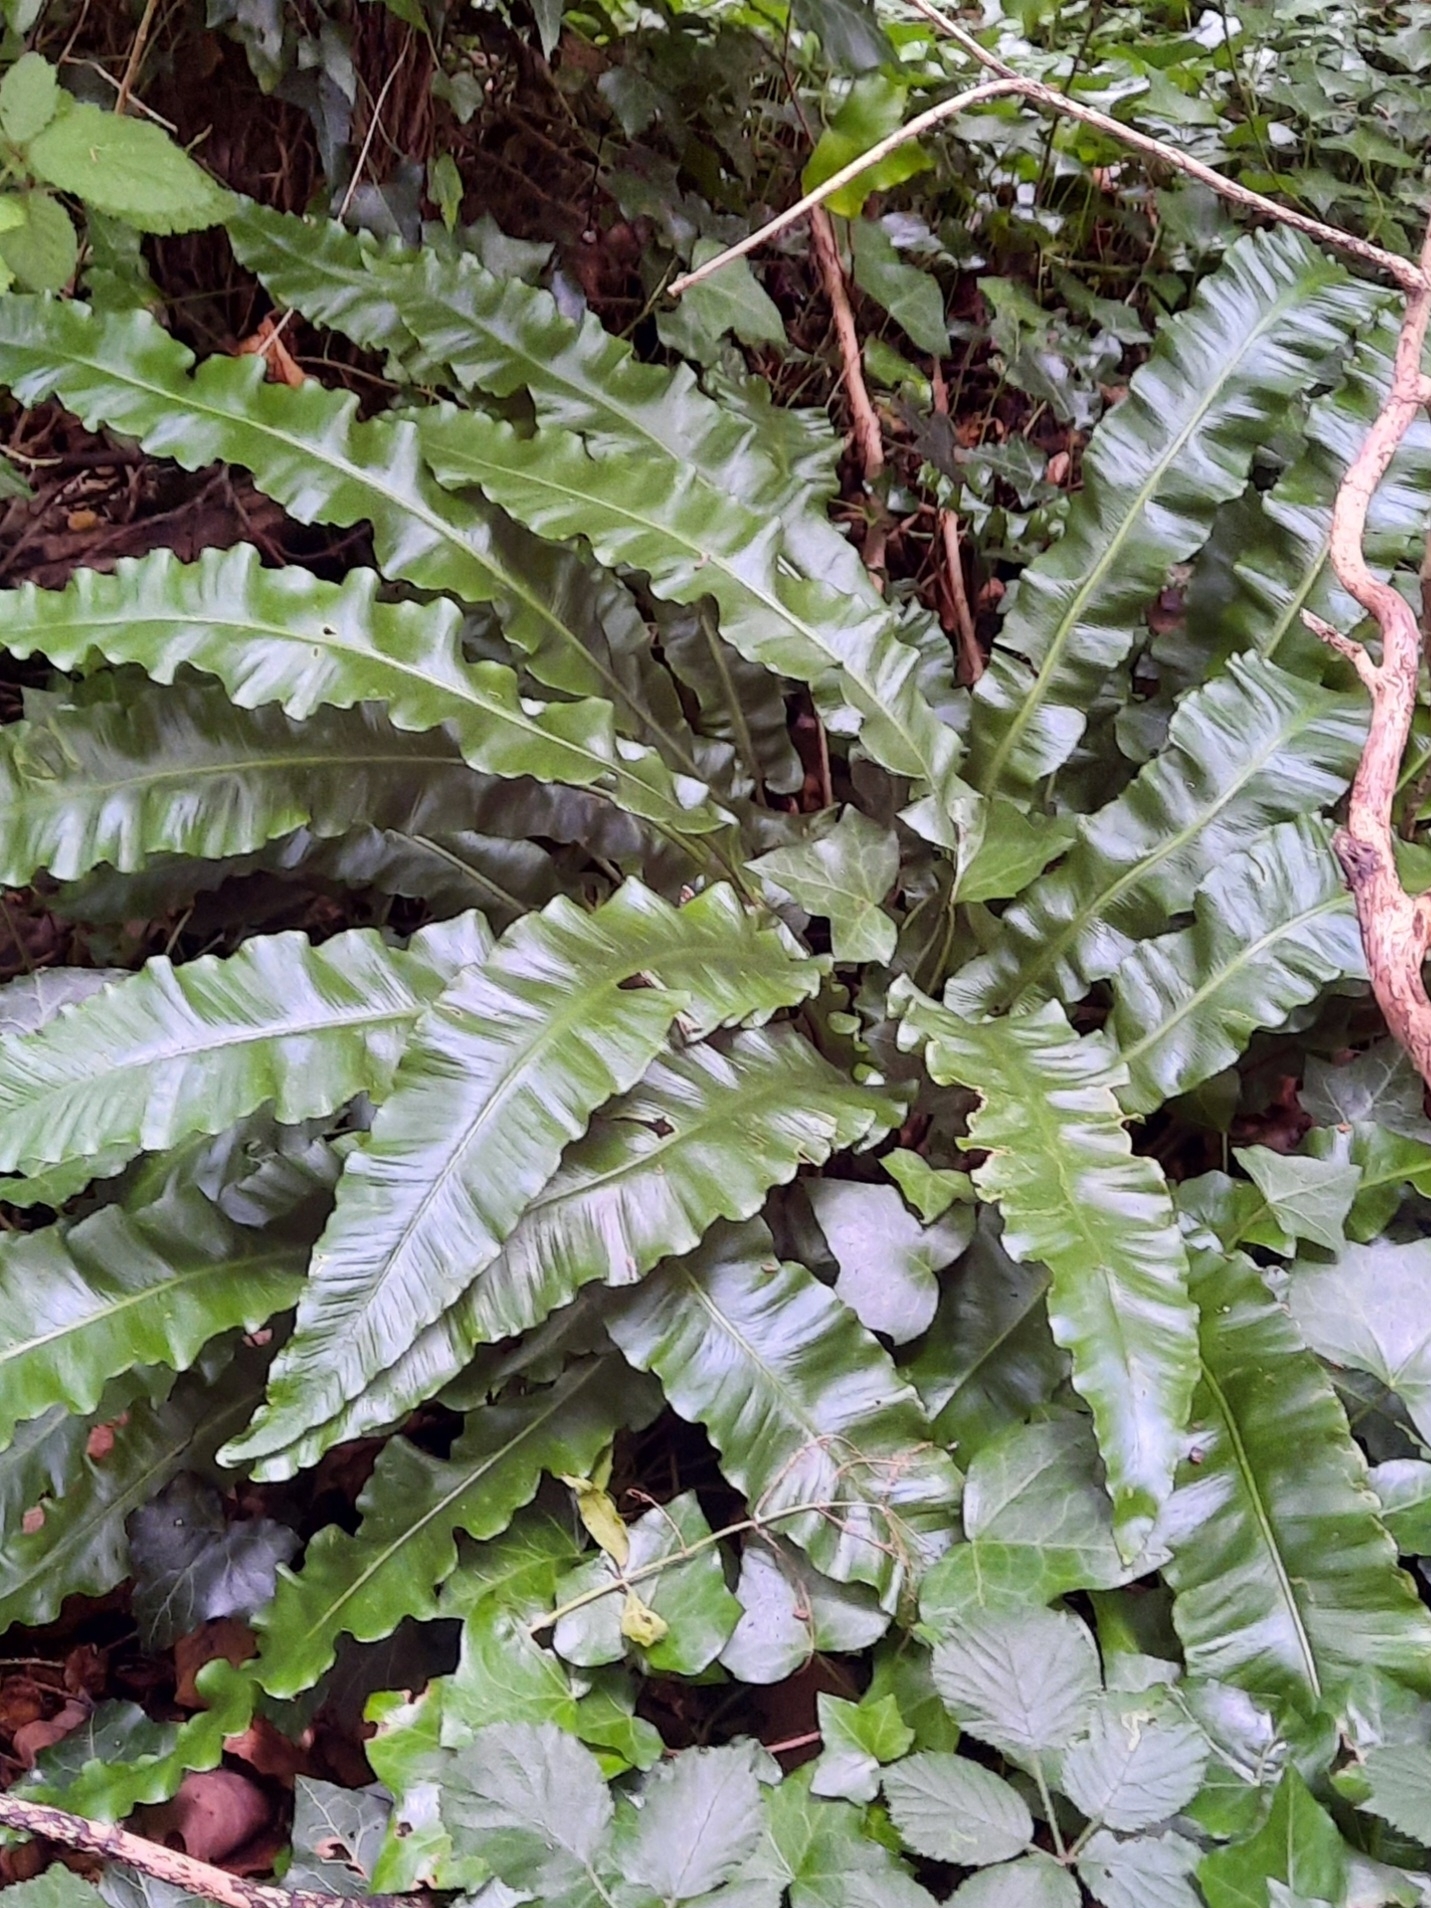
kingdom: Plantae
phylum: Tracheophyta
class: Polypodiopsida
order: Polypodiales
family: Aspleniaceae
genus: Asplenium
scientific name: Asplenium scolopendrium
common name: Hart's-tongue fern
